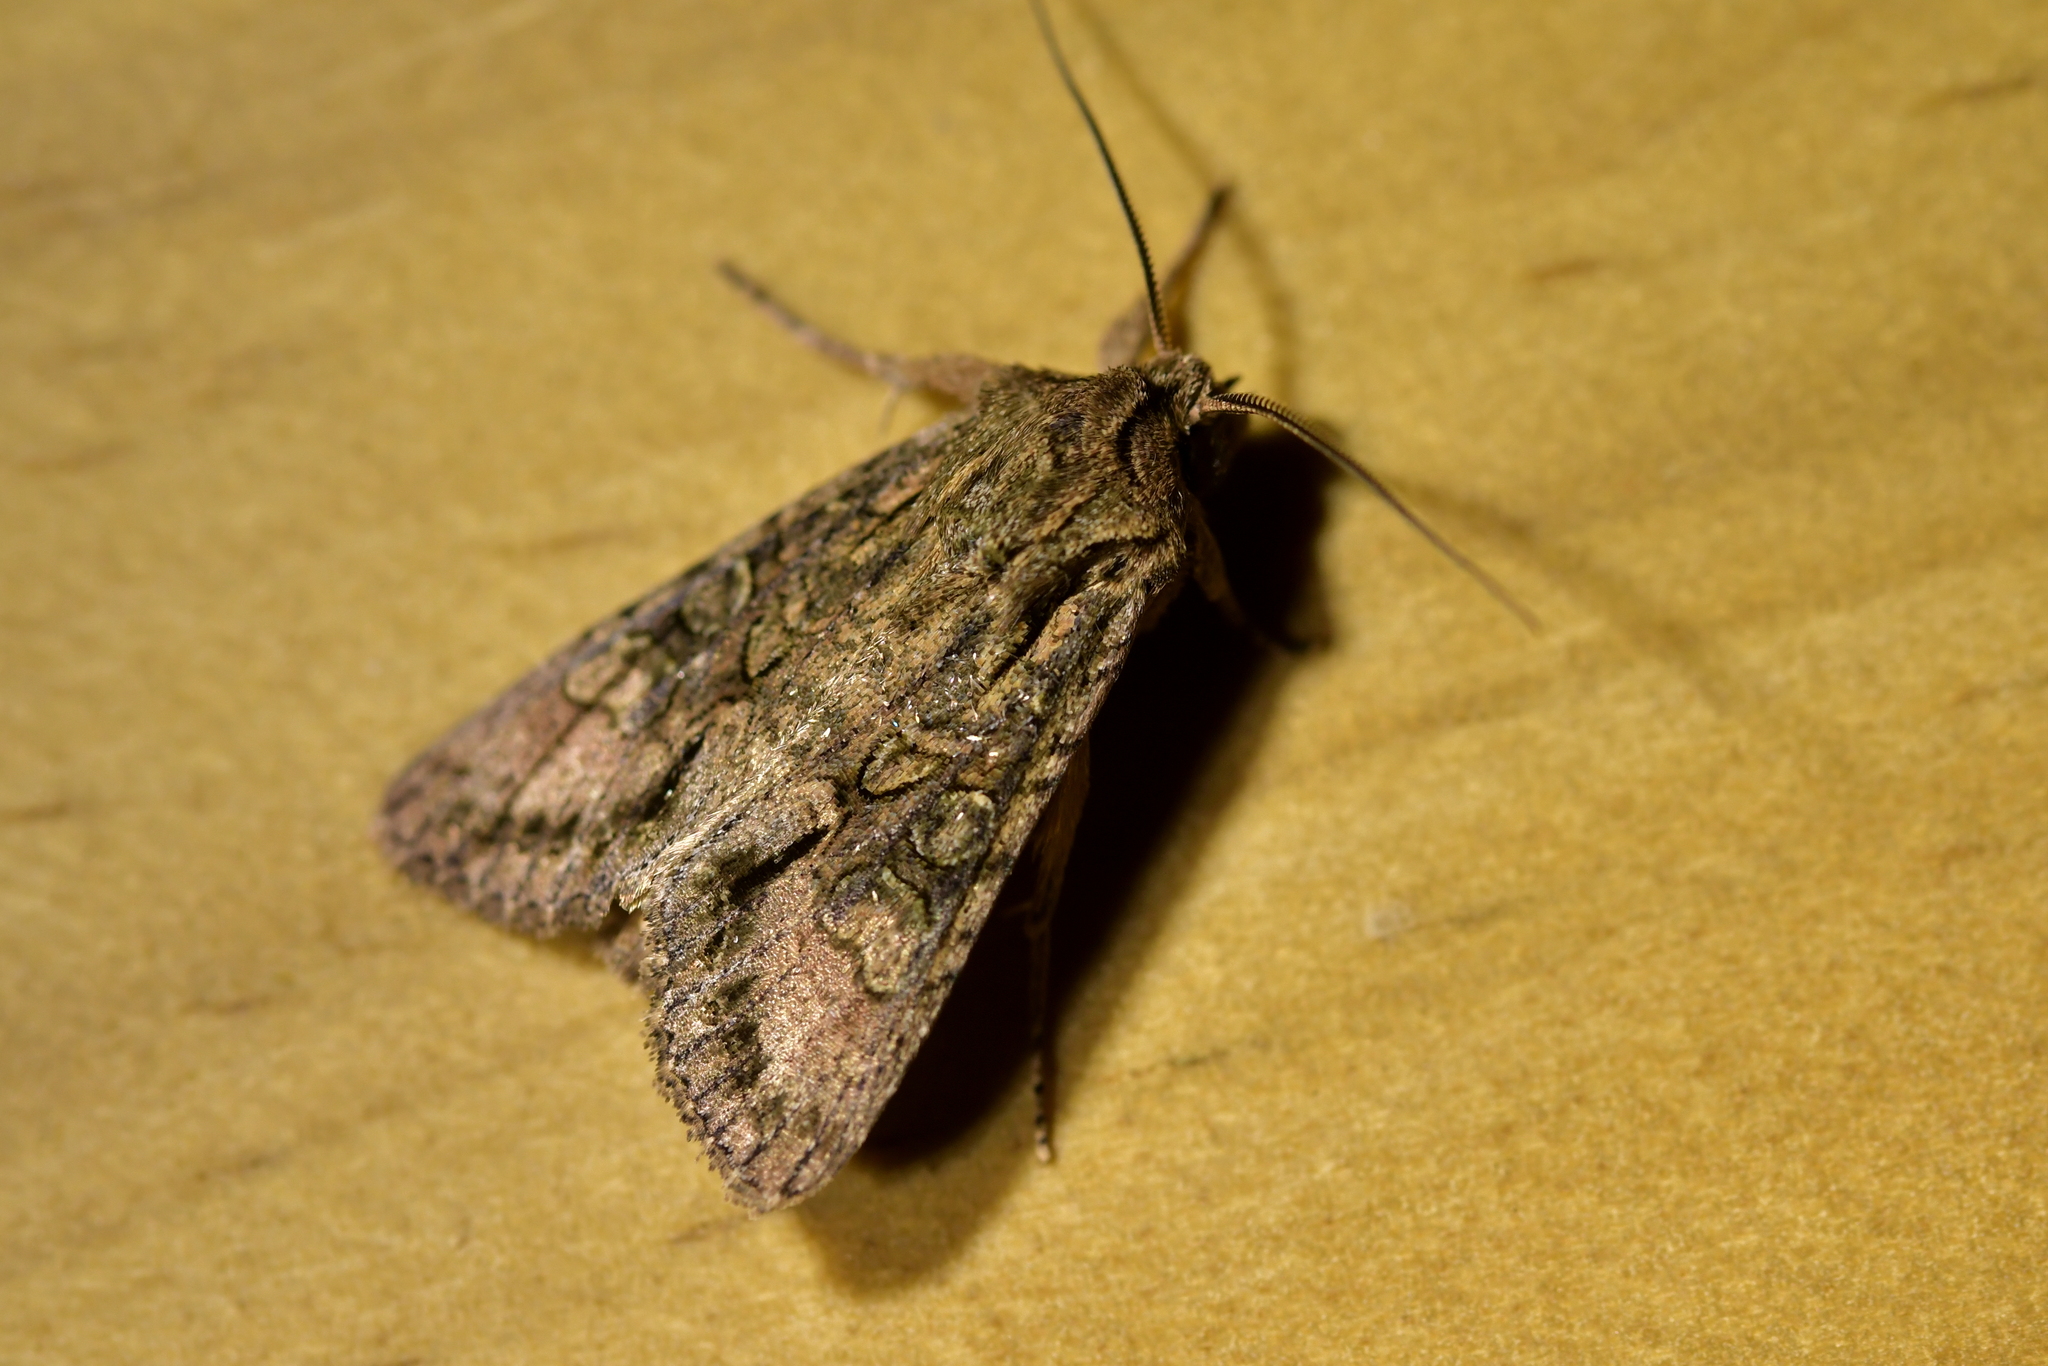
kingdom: Animalia
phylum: Arthropoda
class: Insecta
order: Lepidoptera
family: Noctuidae
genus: Ichneutica
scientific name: Ichneutica mutans
